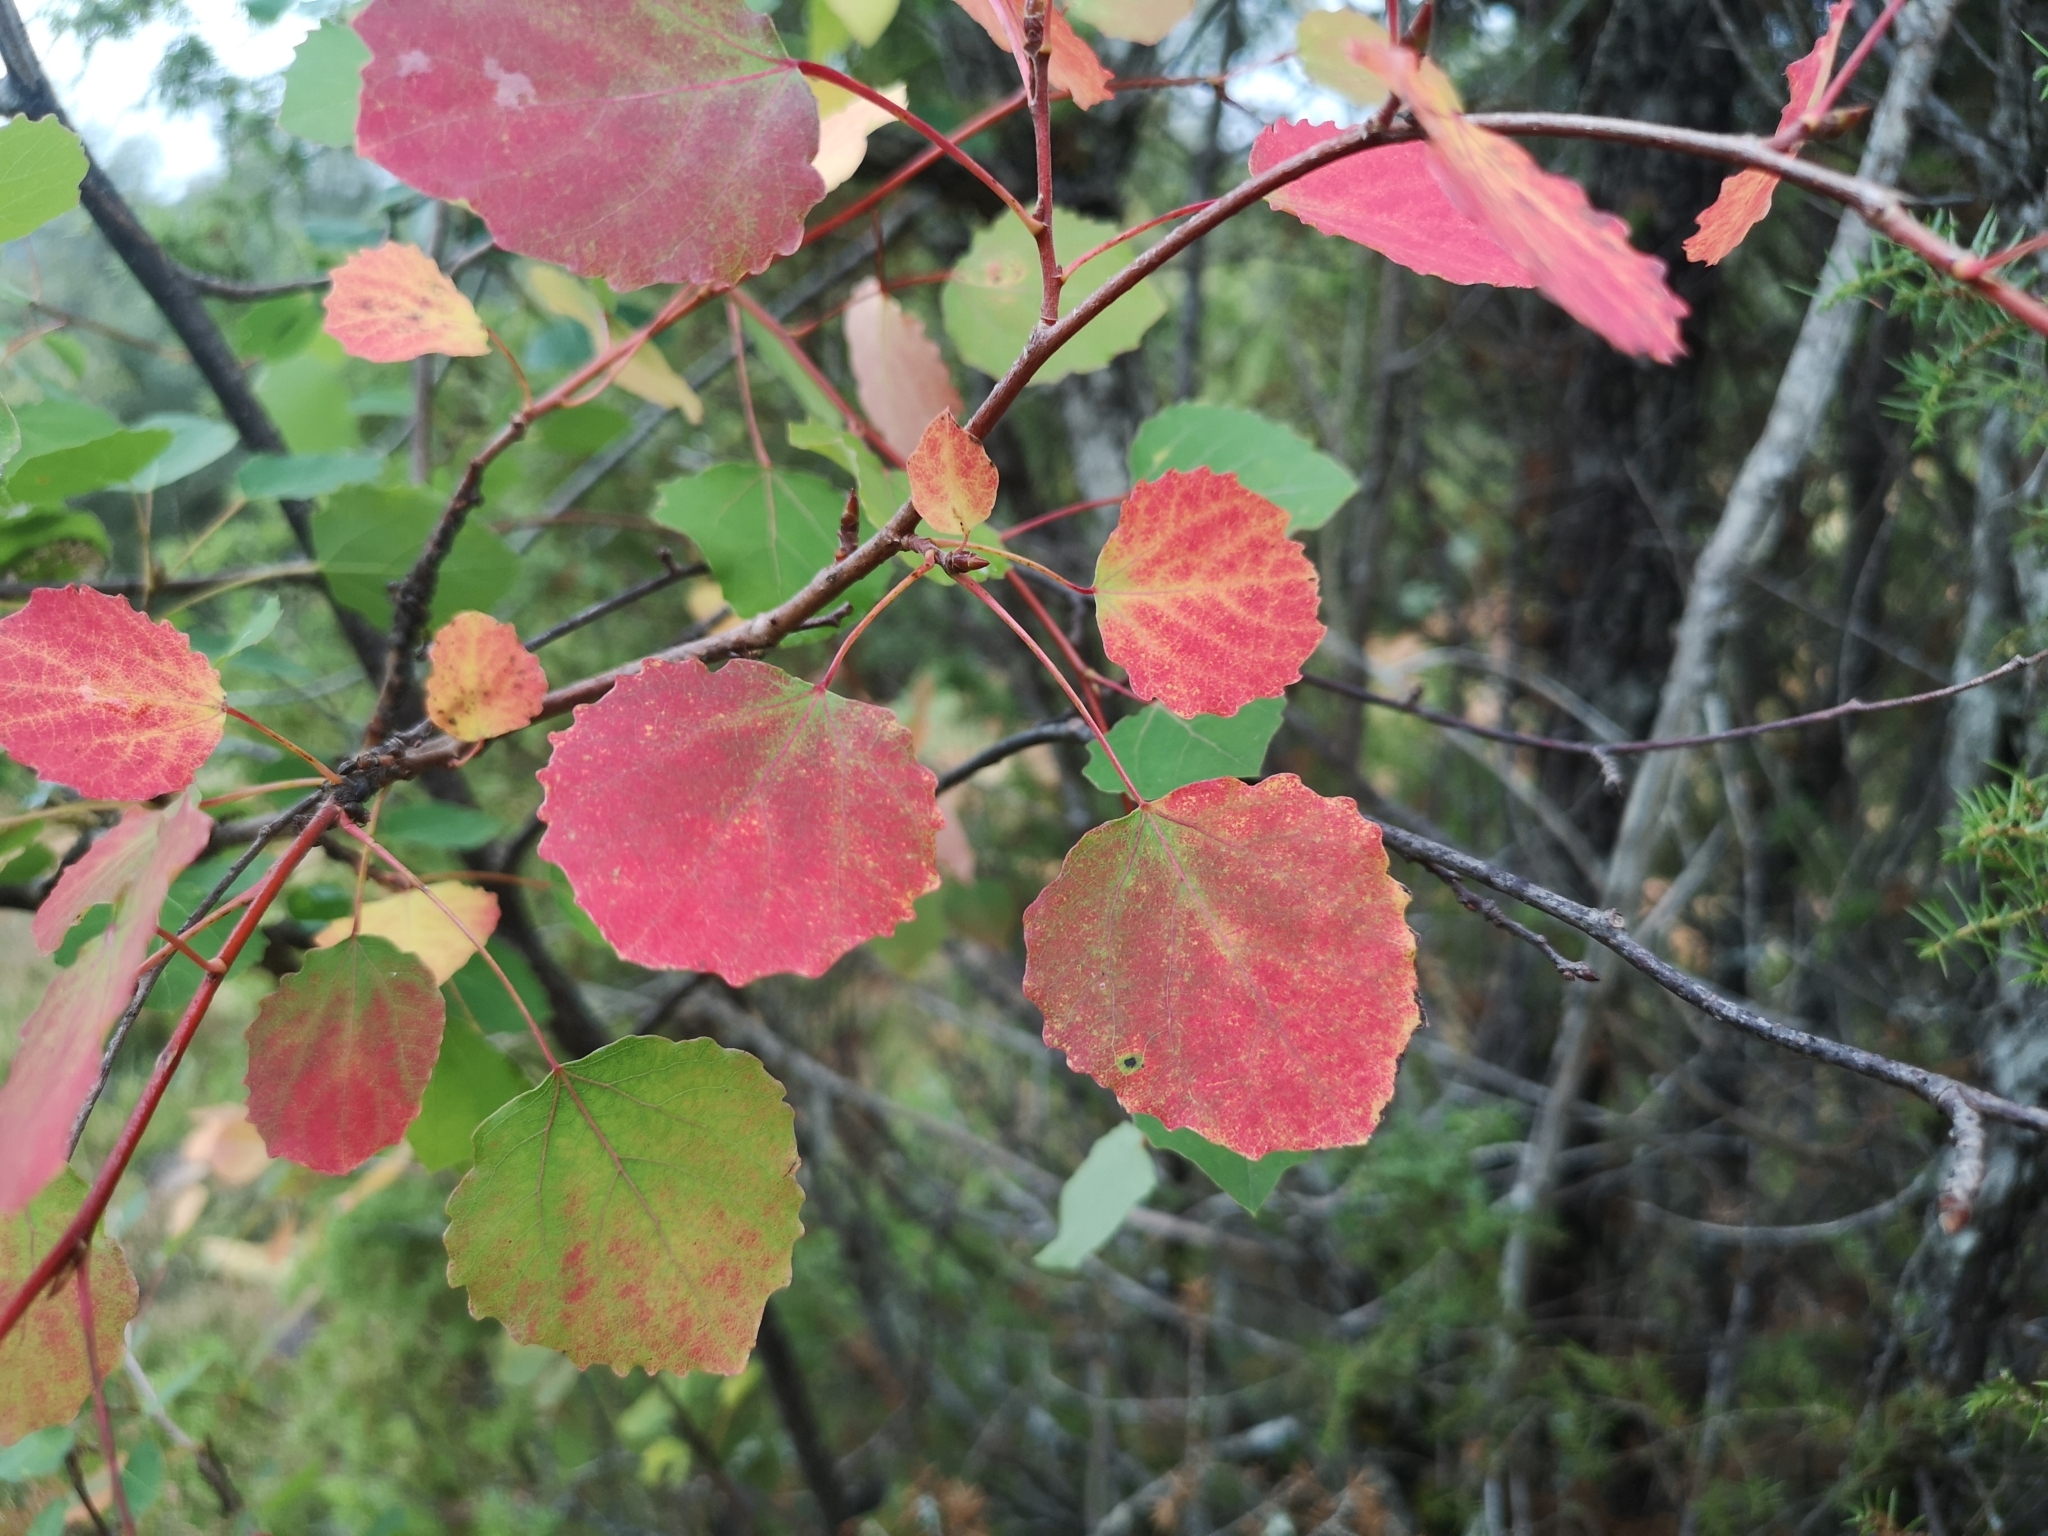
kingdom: Plantae
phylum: Tracheophyta
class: Magnoliopsida
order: Malpighiales
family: Salicaceae
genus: Populus
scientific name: Populus tremula
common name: European aspen
